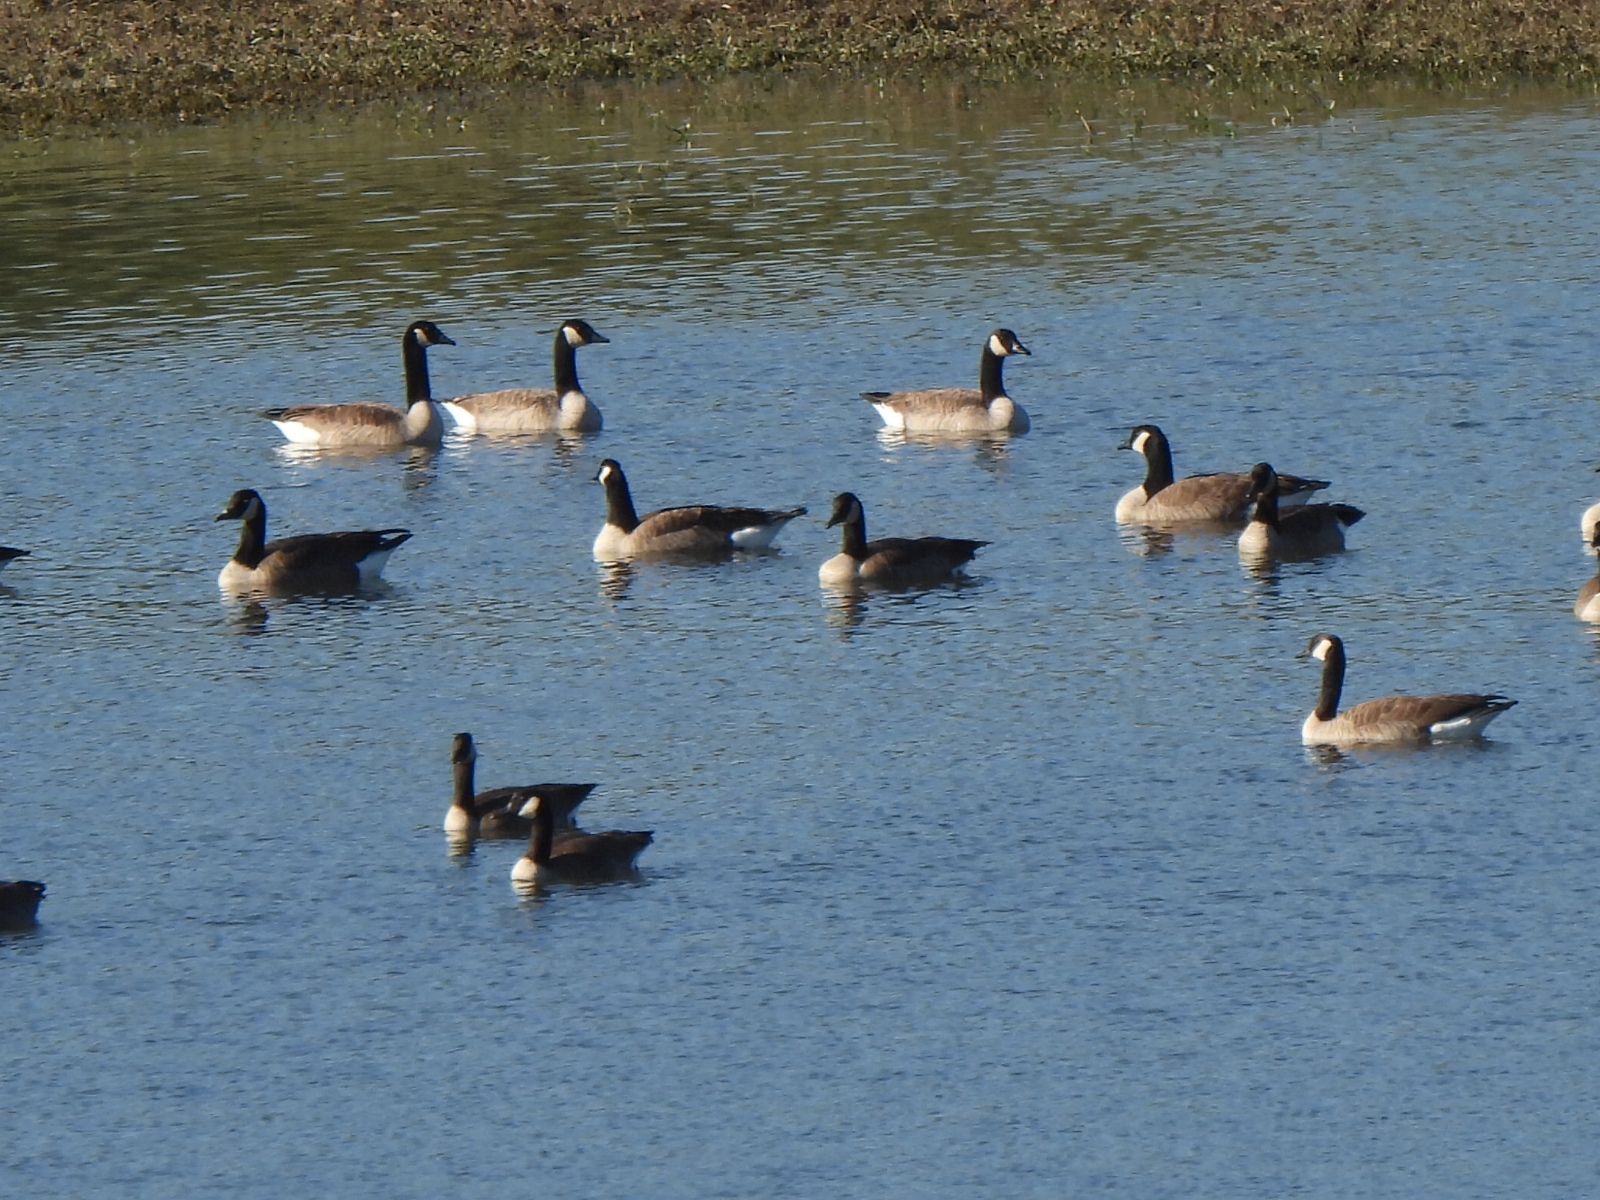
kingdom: Animalia
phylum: Chordata
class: Aves
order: Anseriformes
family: Anatidae
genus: Branta
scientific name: Branta canadensis
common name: Canada goose
